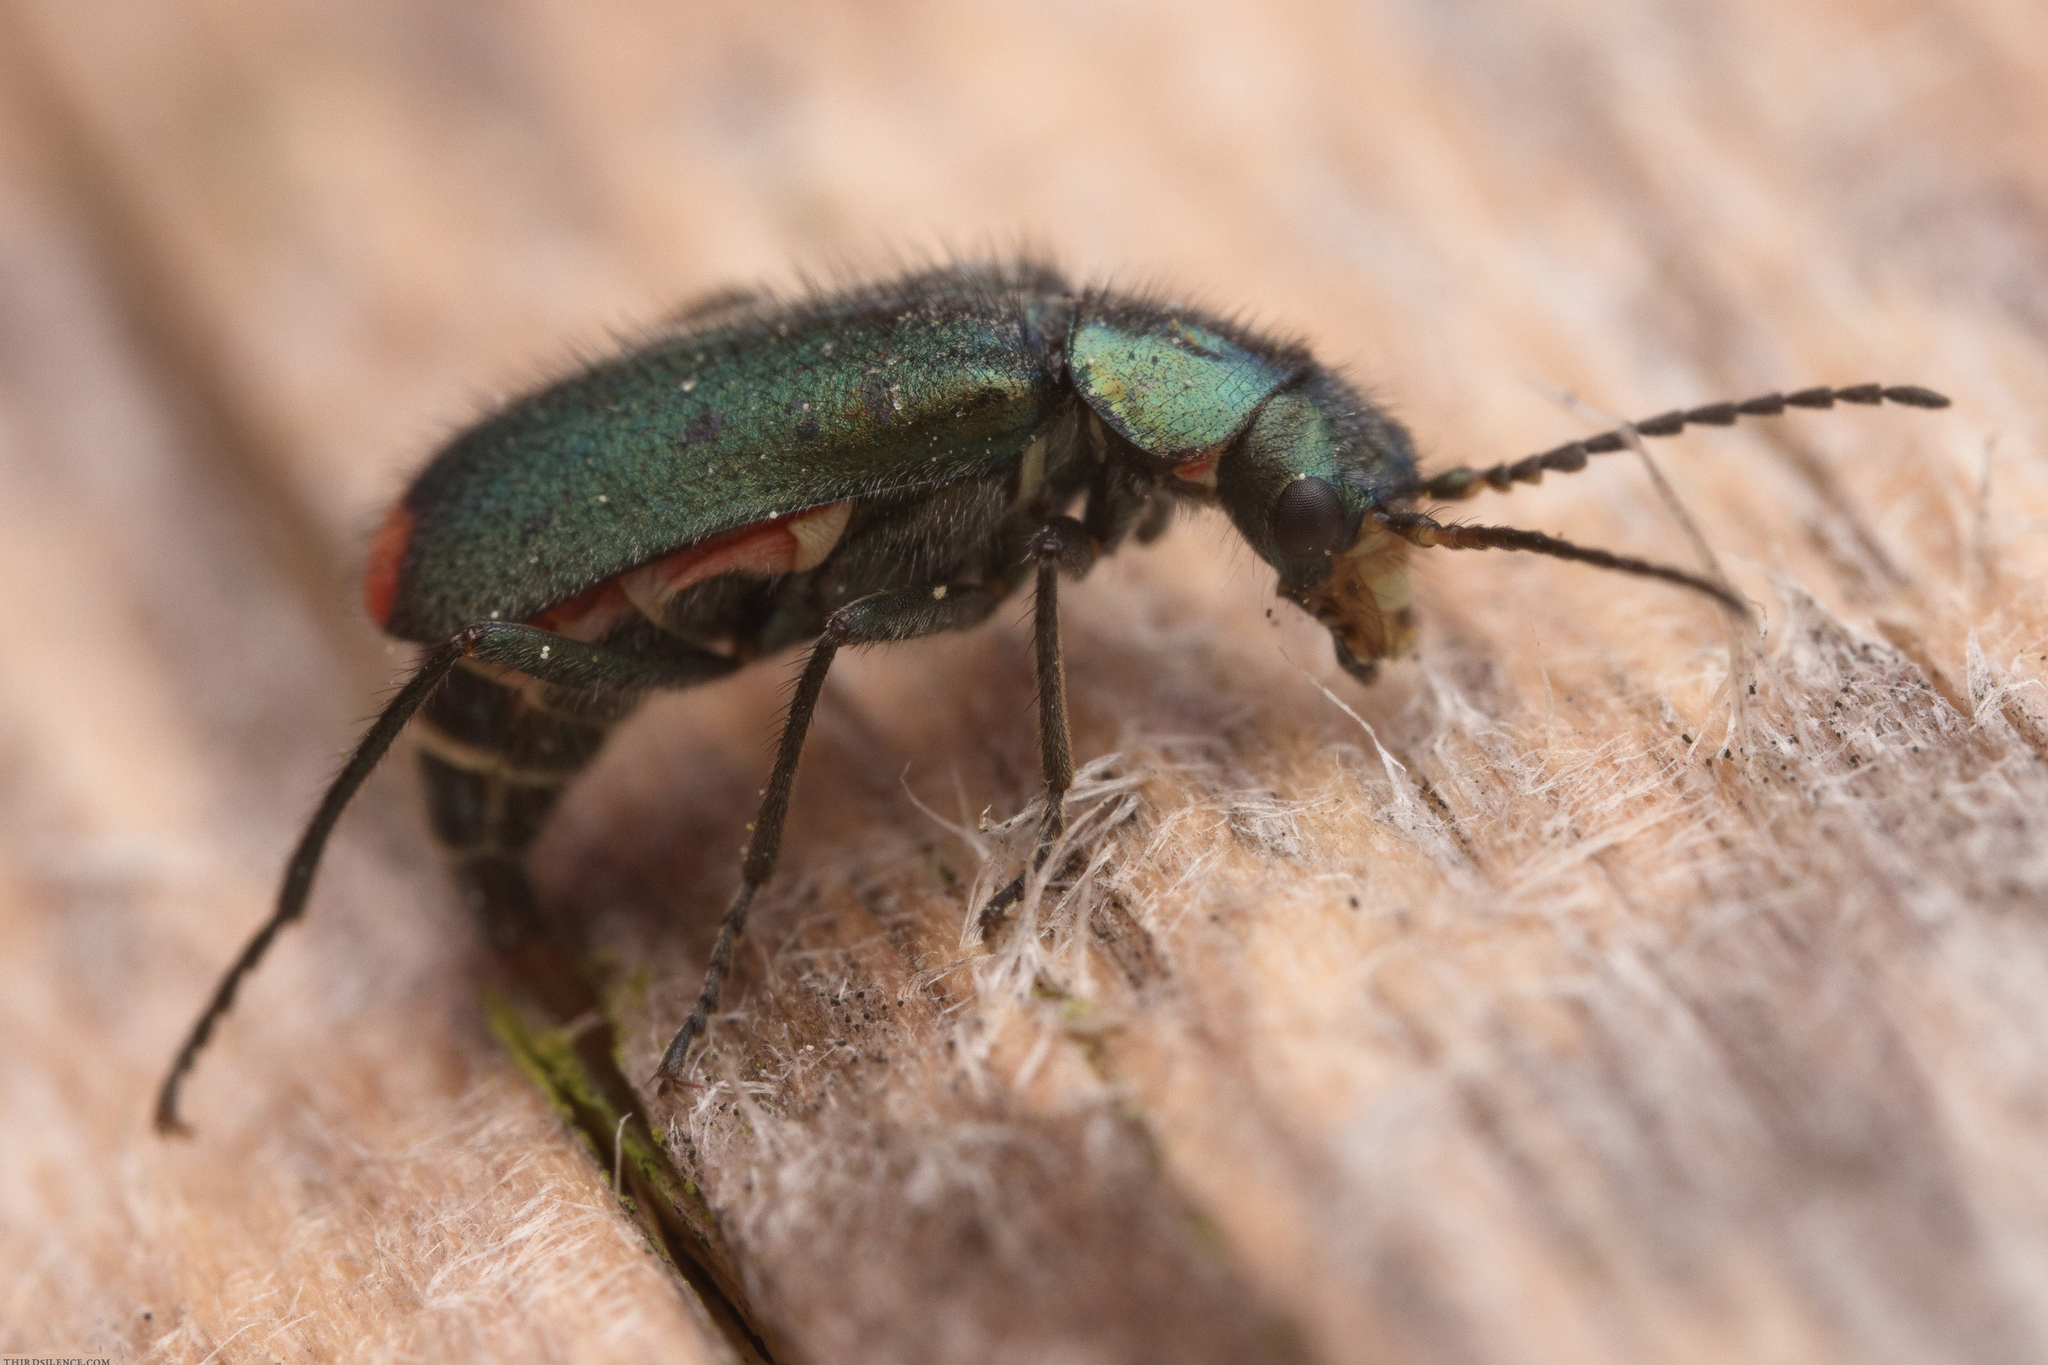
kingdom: Animalia
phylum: Arthropoda
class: Insecta
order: Coleoptera
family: Melyridae
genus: Malachius
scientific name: Malachius bipustulatus
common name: Malachite beetle
